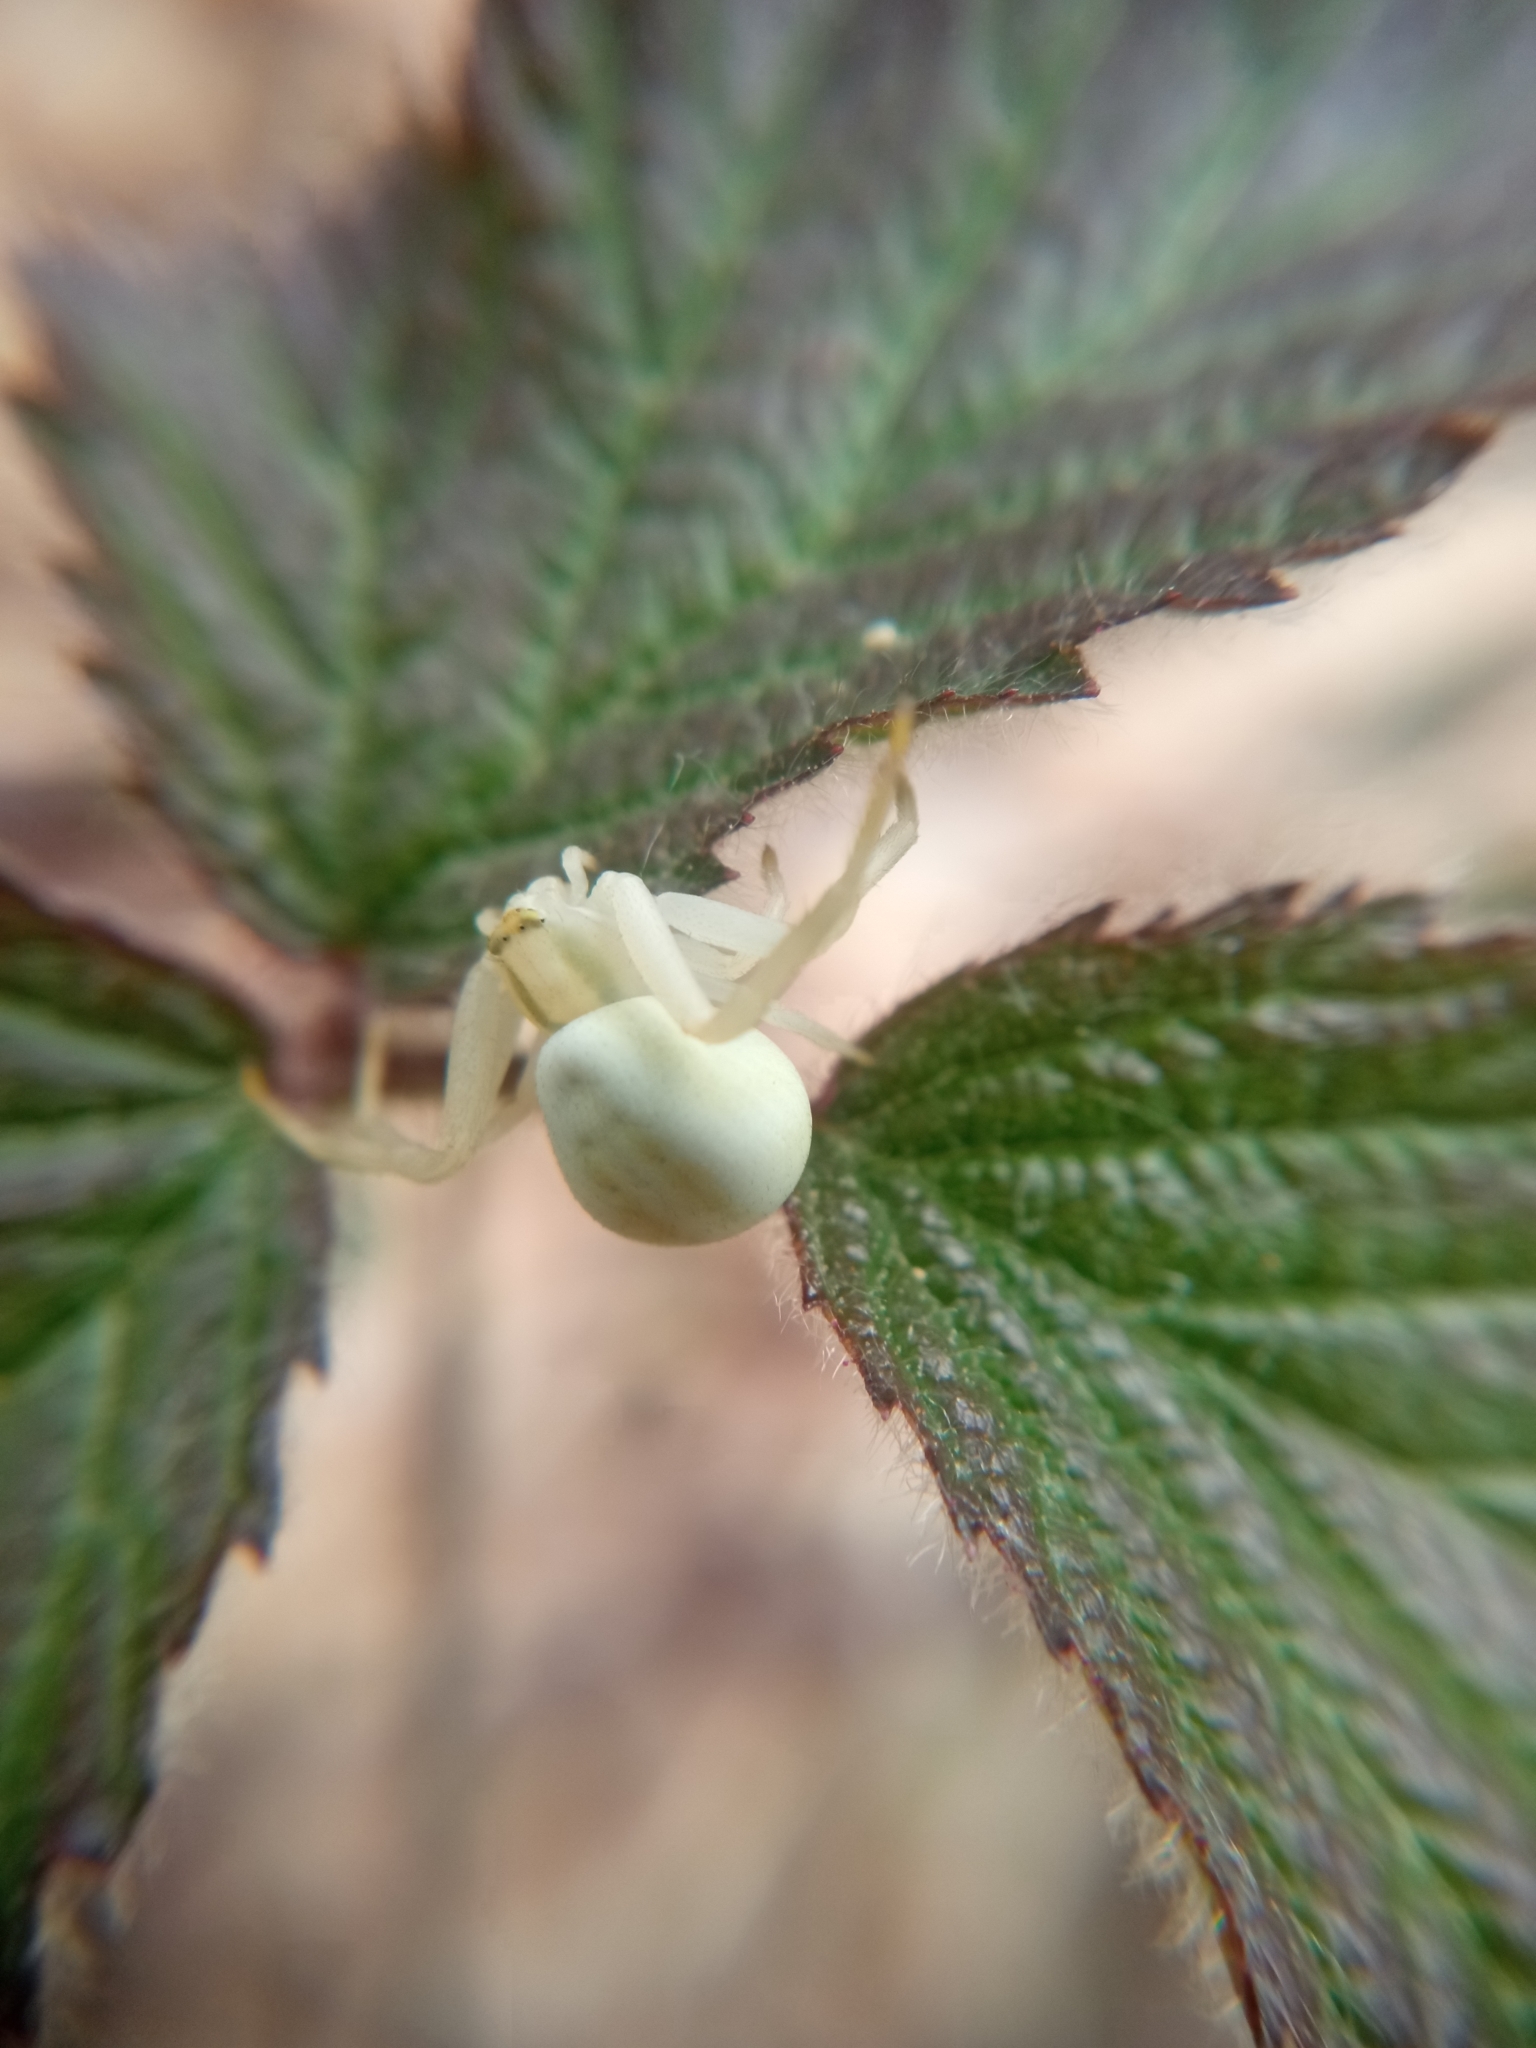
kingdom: Animalia
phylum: Arthropoda
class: Arachnida
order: Araneae
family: Thomisidae
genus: Misumena
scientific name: Misumena vatia
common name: Goldenrod crab spider
